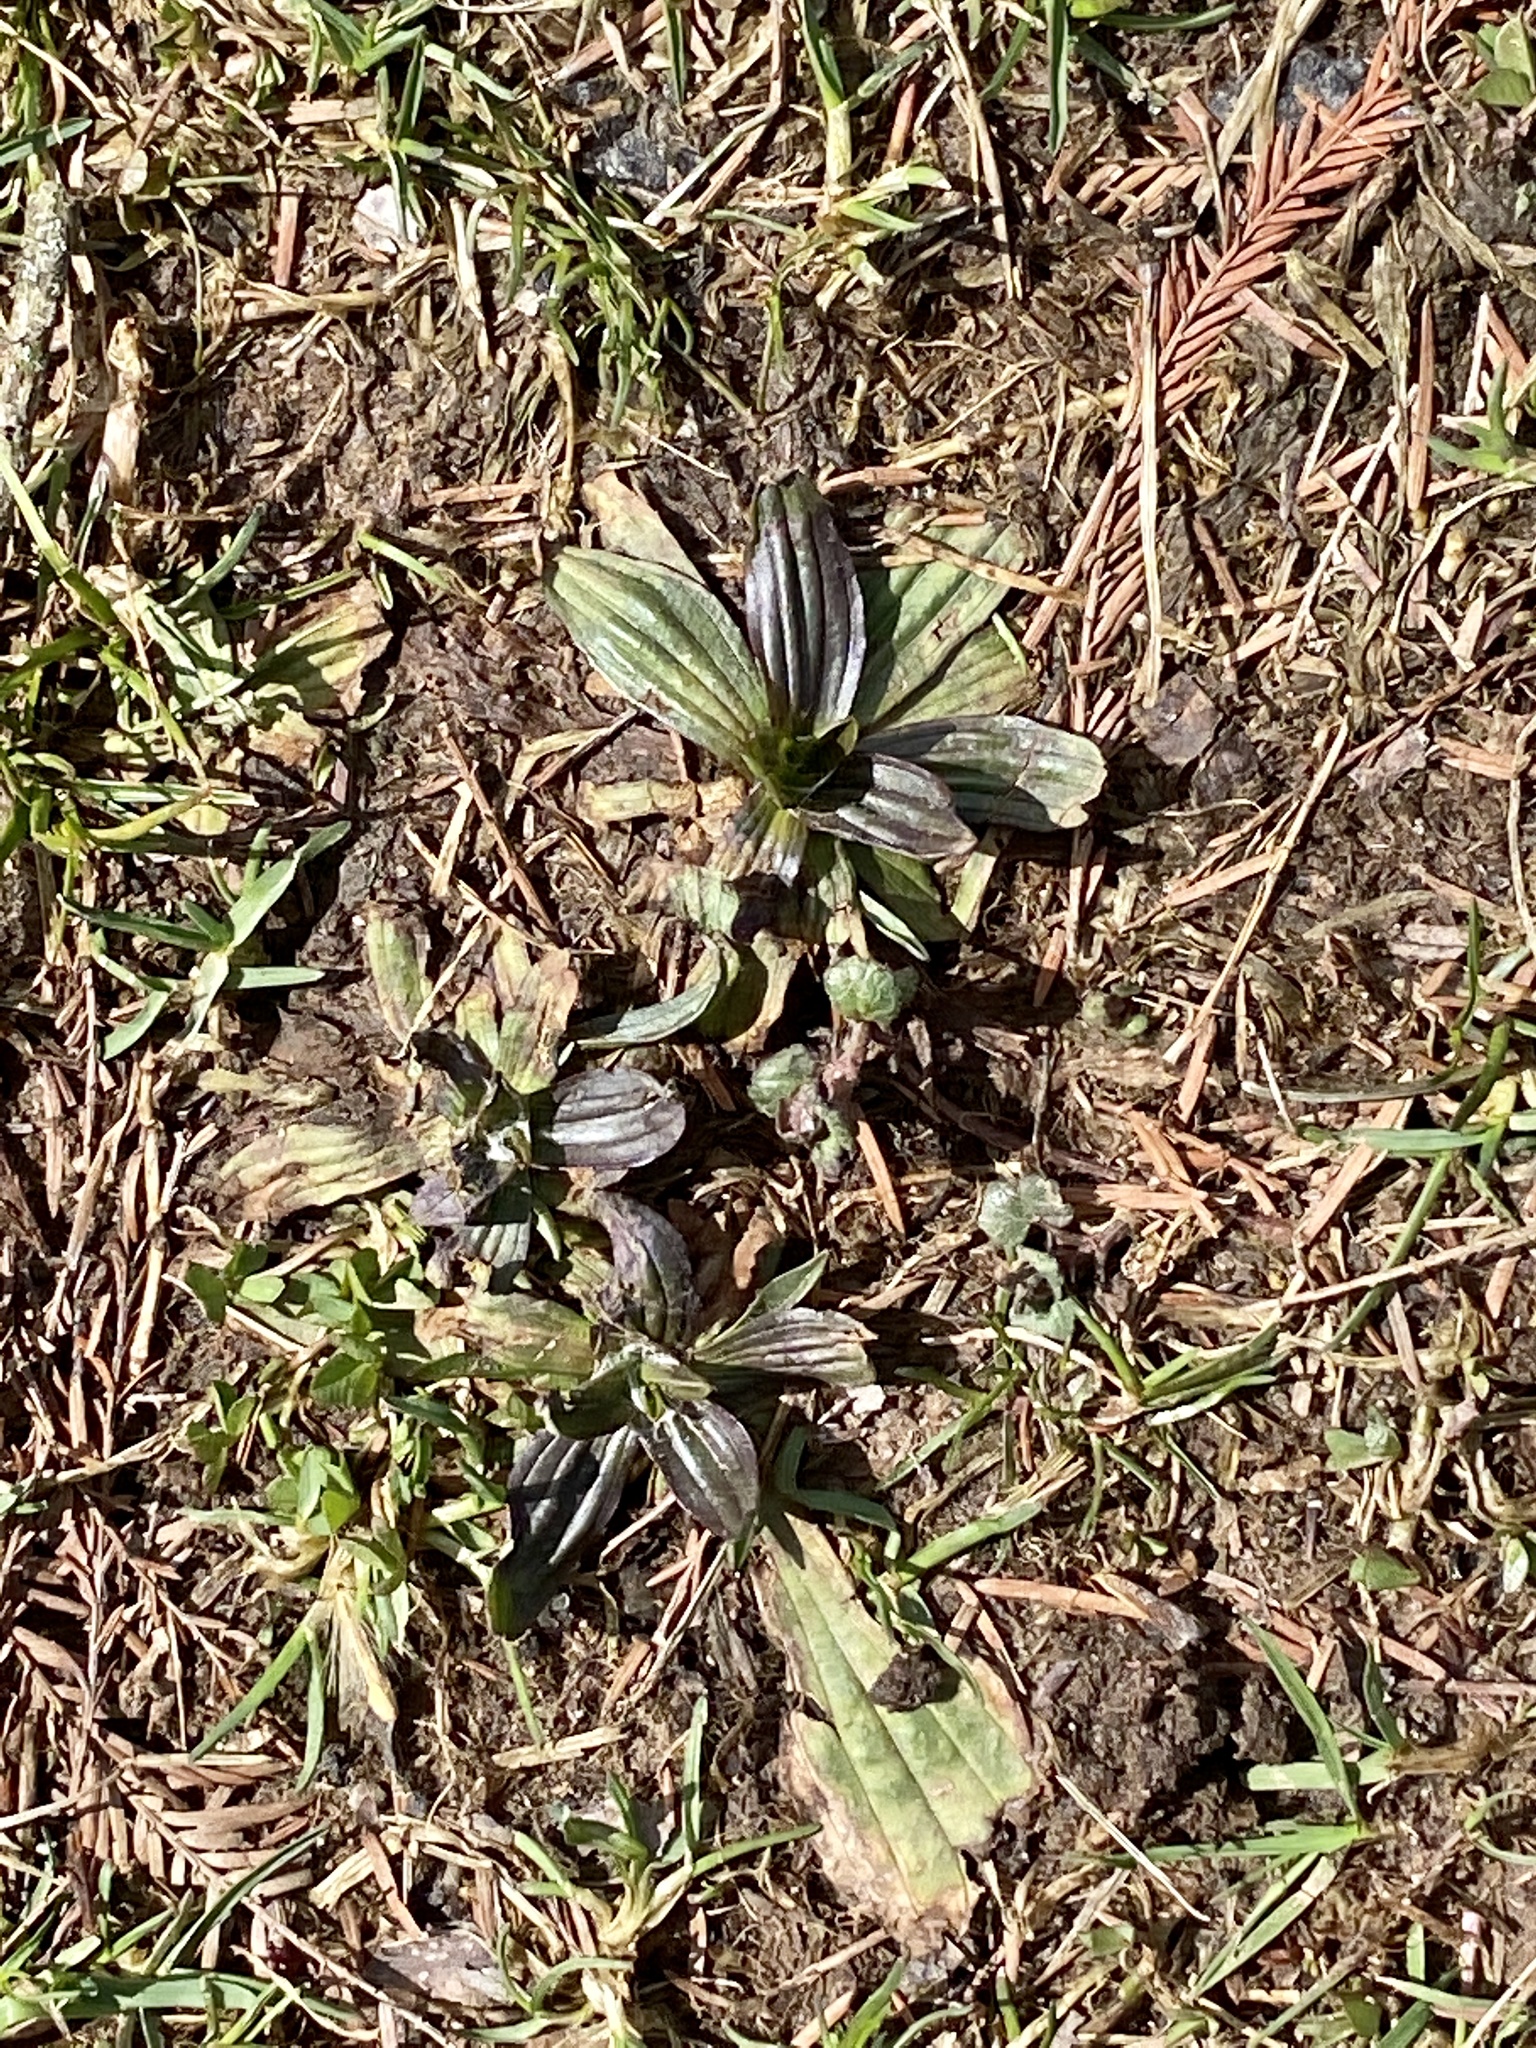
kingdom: Plantae
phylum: Tracheophyta
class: Magnoliopsida
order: Lamiales
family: Plantaginaceae
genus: Plantago
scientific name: Plantago lanceolata
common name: Ribwort plantain
